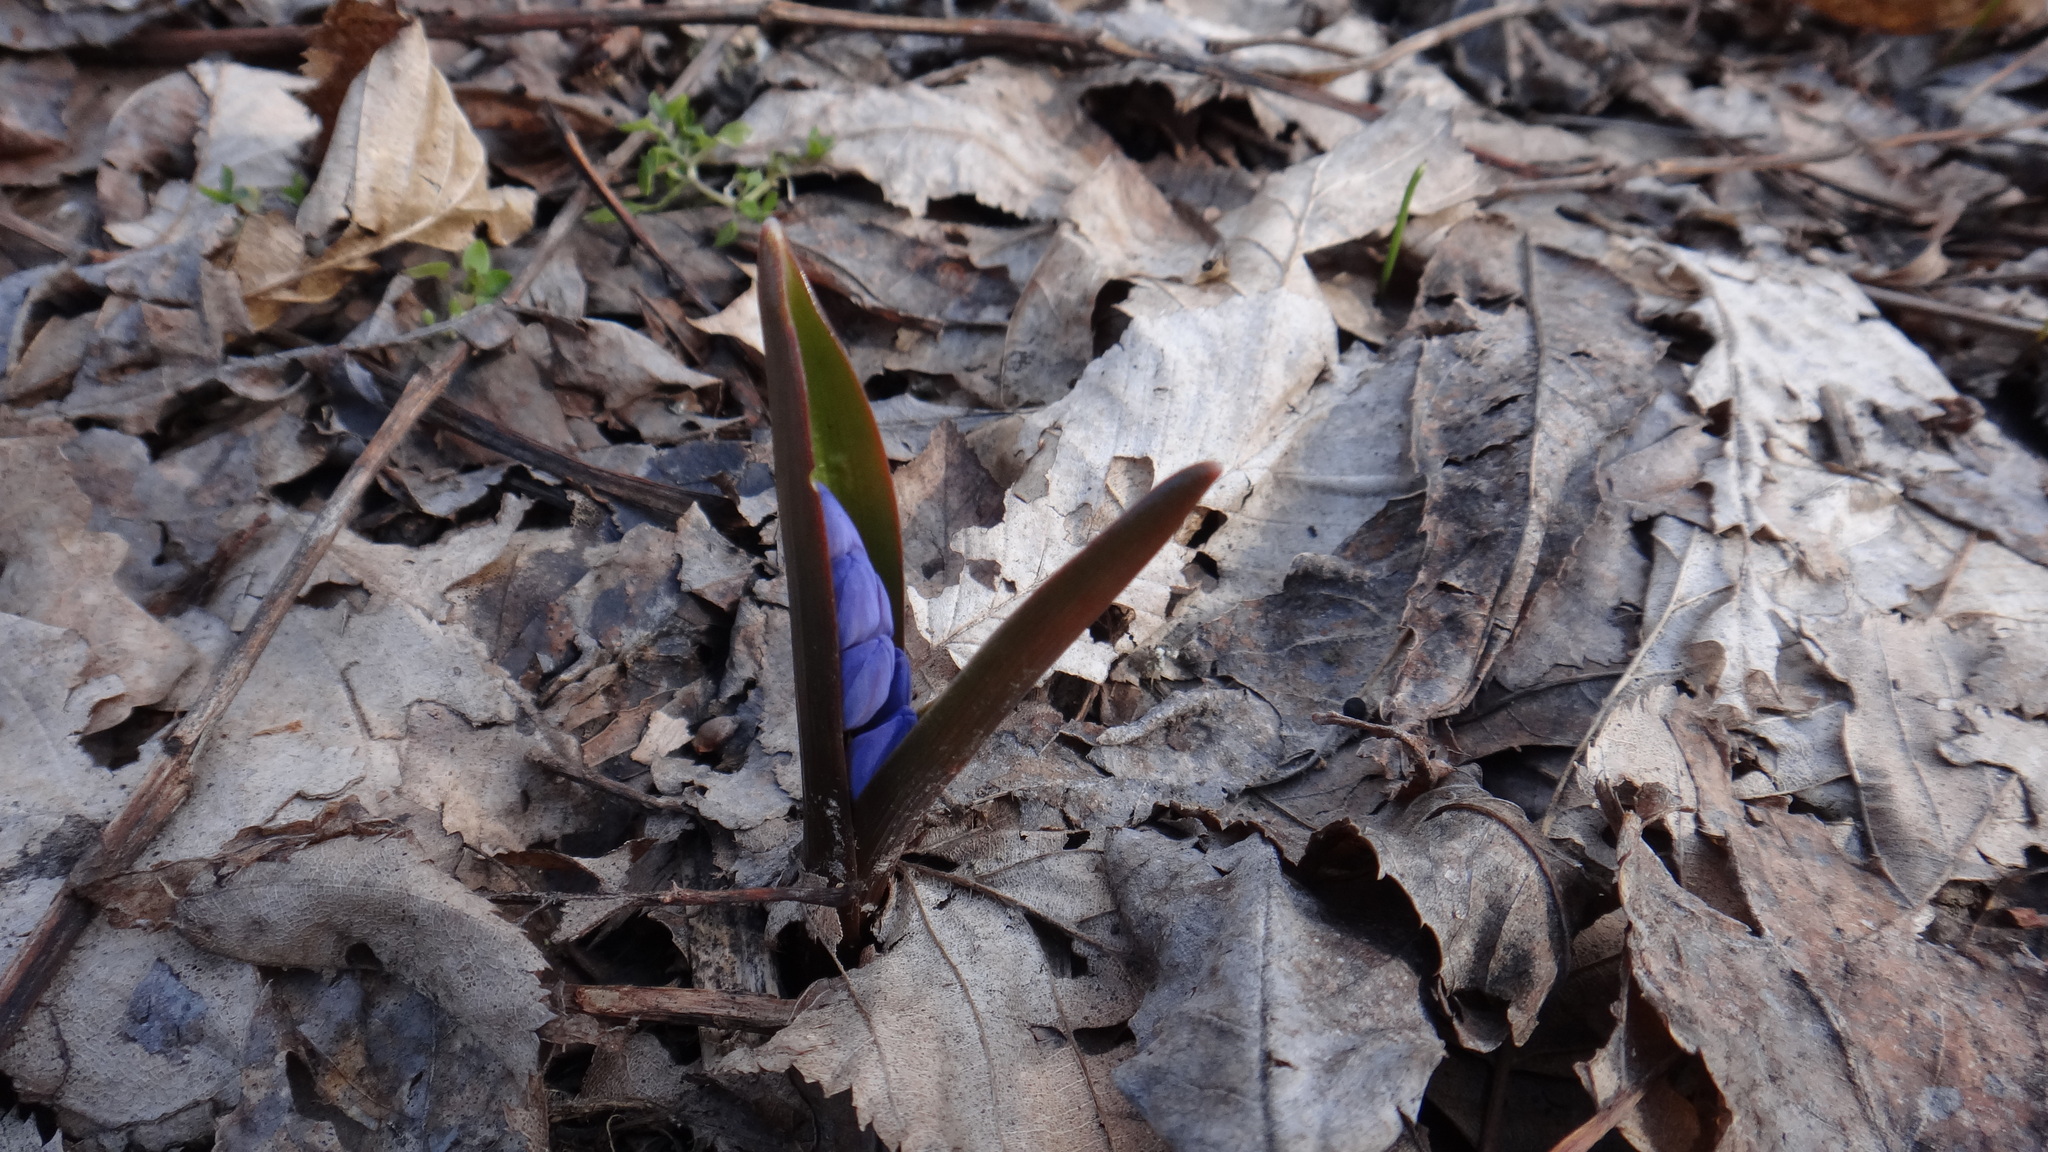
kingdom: Plantae
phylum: Tracheophyta
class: Liliopsida
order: Asparagales
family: Asparagaceae
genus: Scilla
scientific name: Scilla bifolia
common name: Alpine squill
